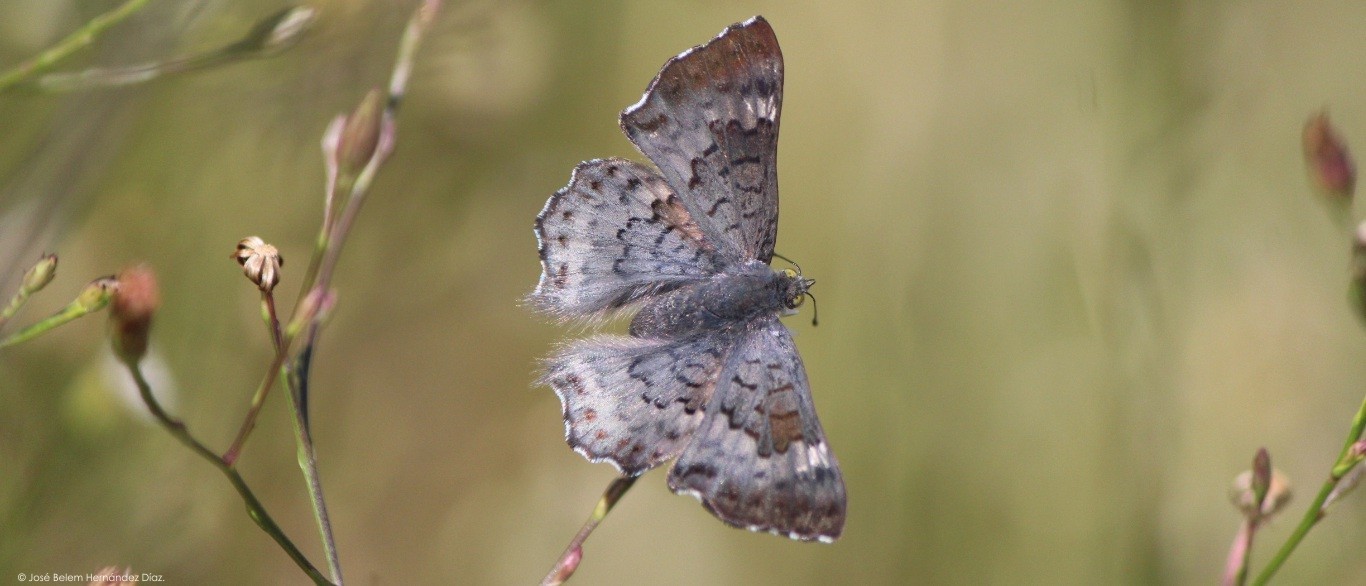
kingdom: Animalia
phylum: Arthropoda
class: Insecta
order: Lepidoptera
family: Riodinidae
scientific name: Riodinidae
